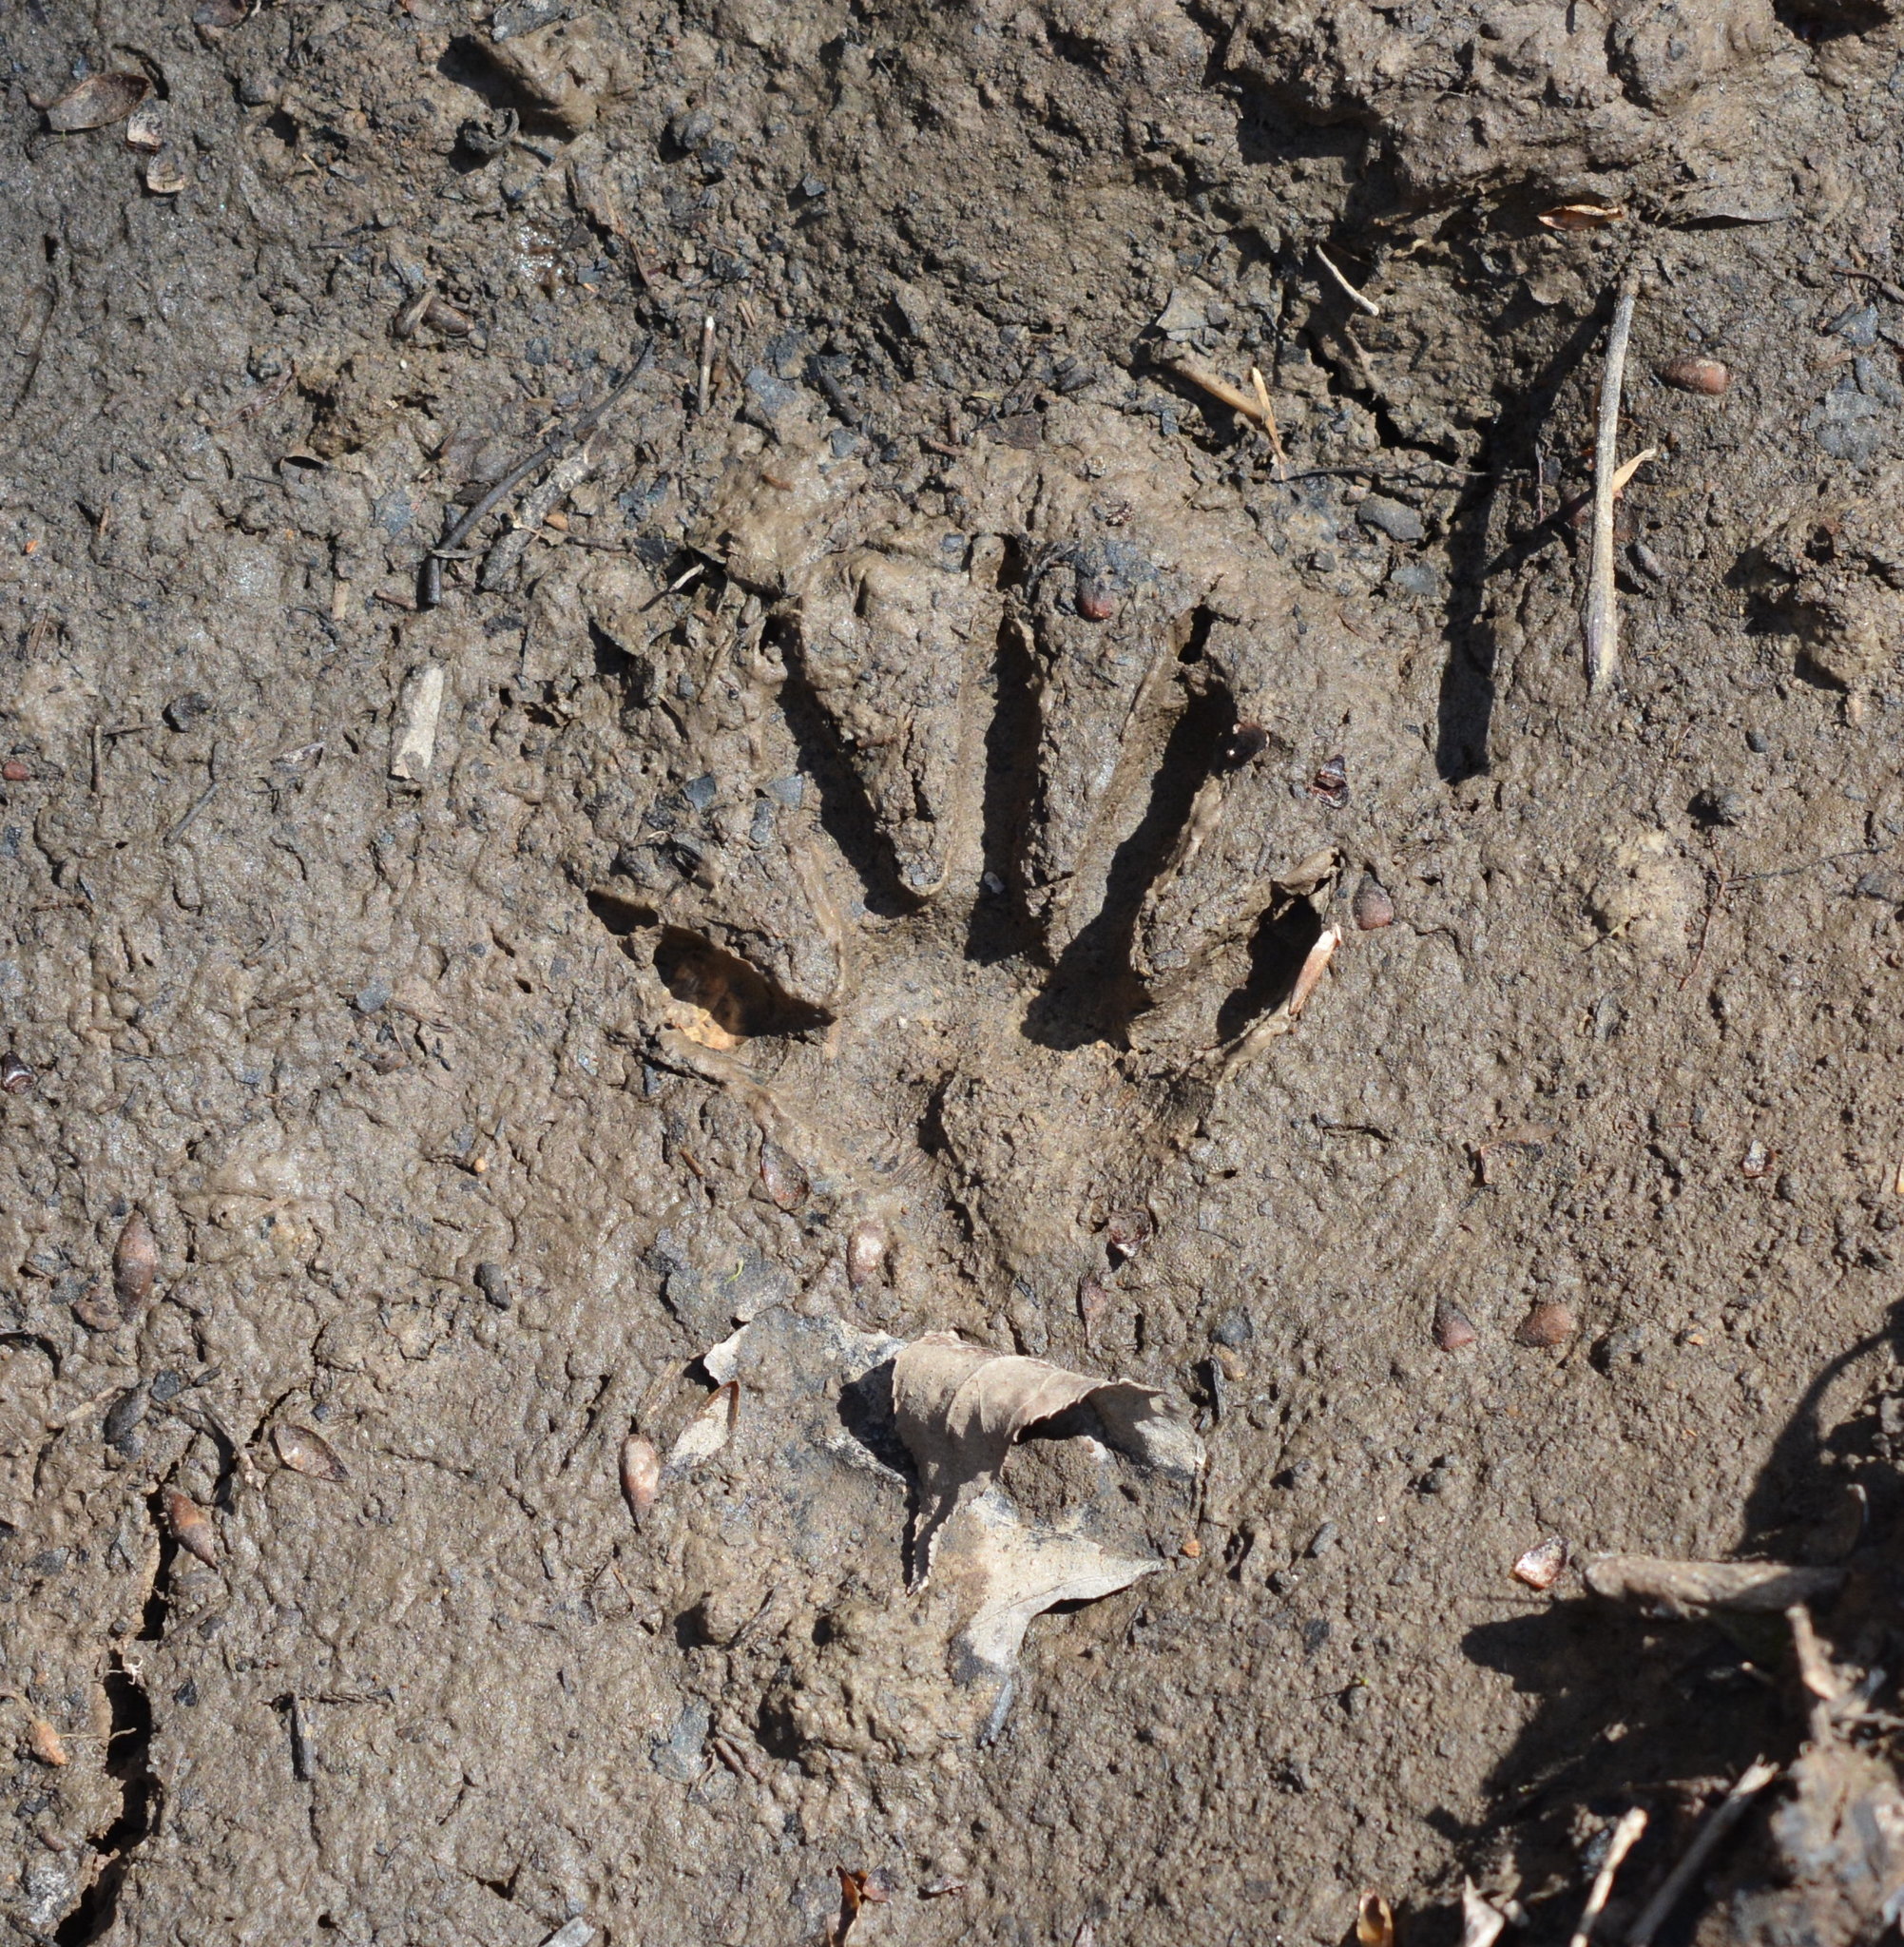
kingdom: Animalia
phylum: Chordata
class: Mammalia
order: Carnivora
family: Procyonidae
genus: Procyon
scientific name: Procyon lotor
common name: Raccoon
